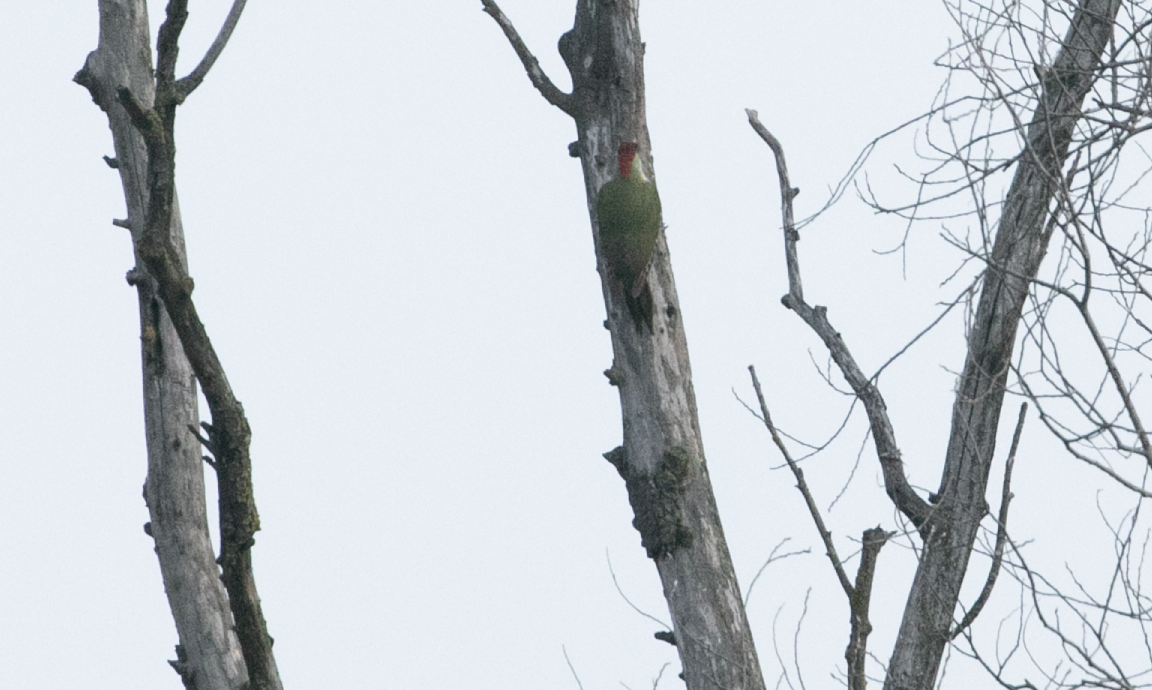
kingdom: Animalia
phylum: Chordata
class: Aves
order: Piciformes
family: Picidae
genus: Picus
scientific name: Picus viridis
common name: European green woodpecker
